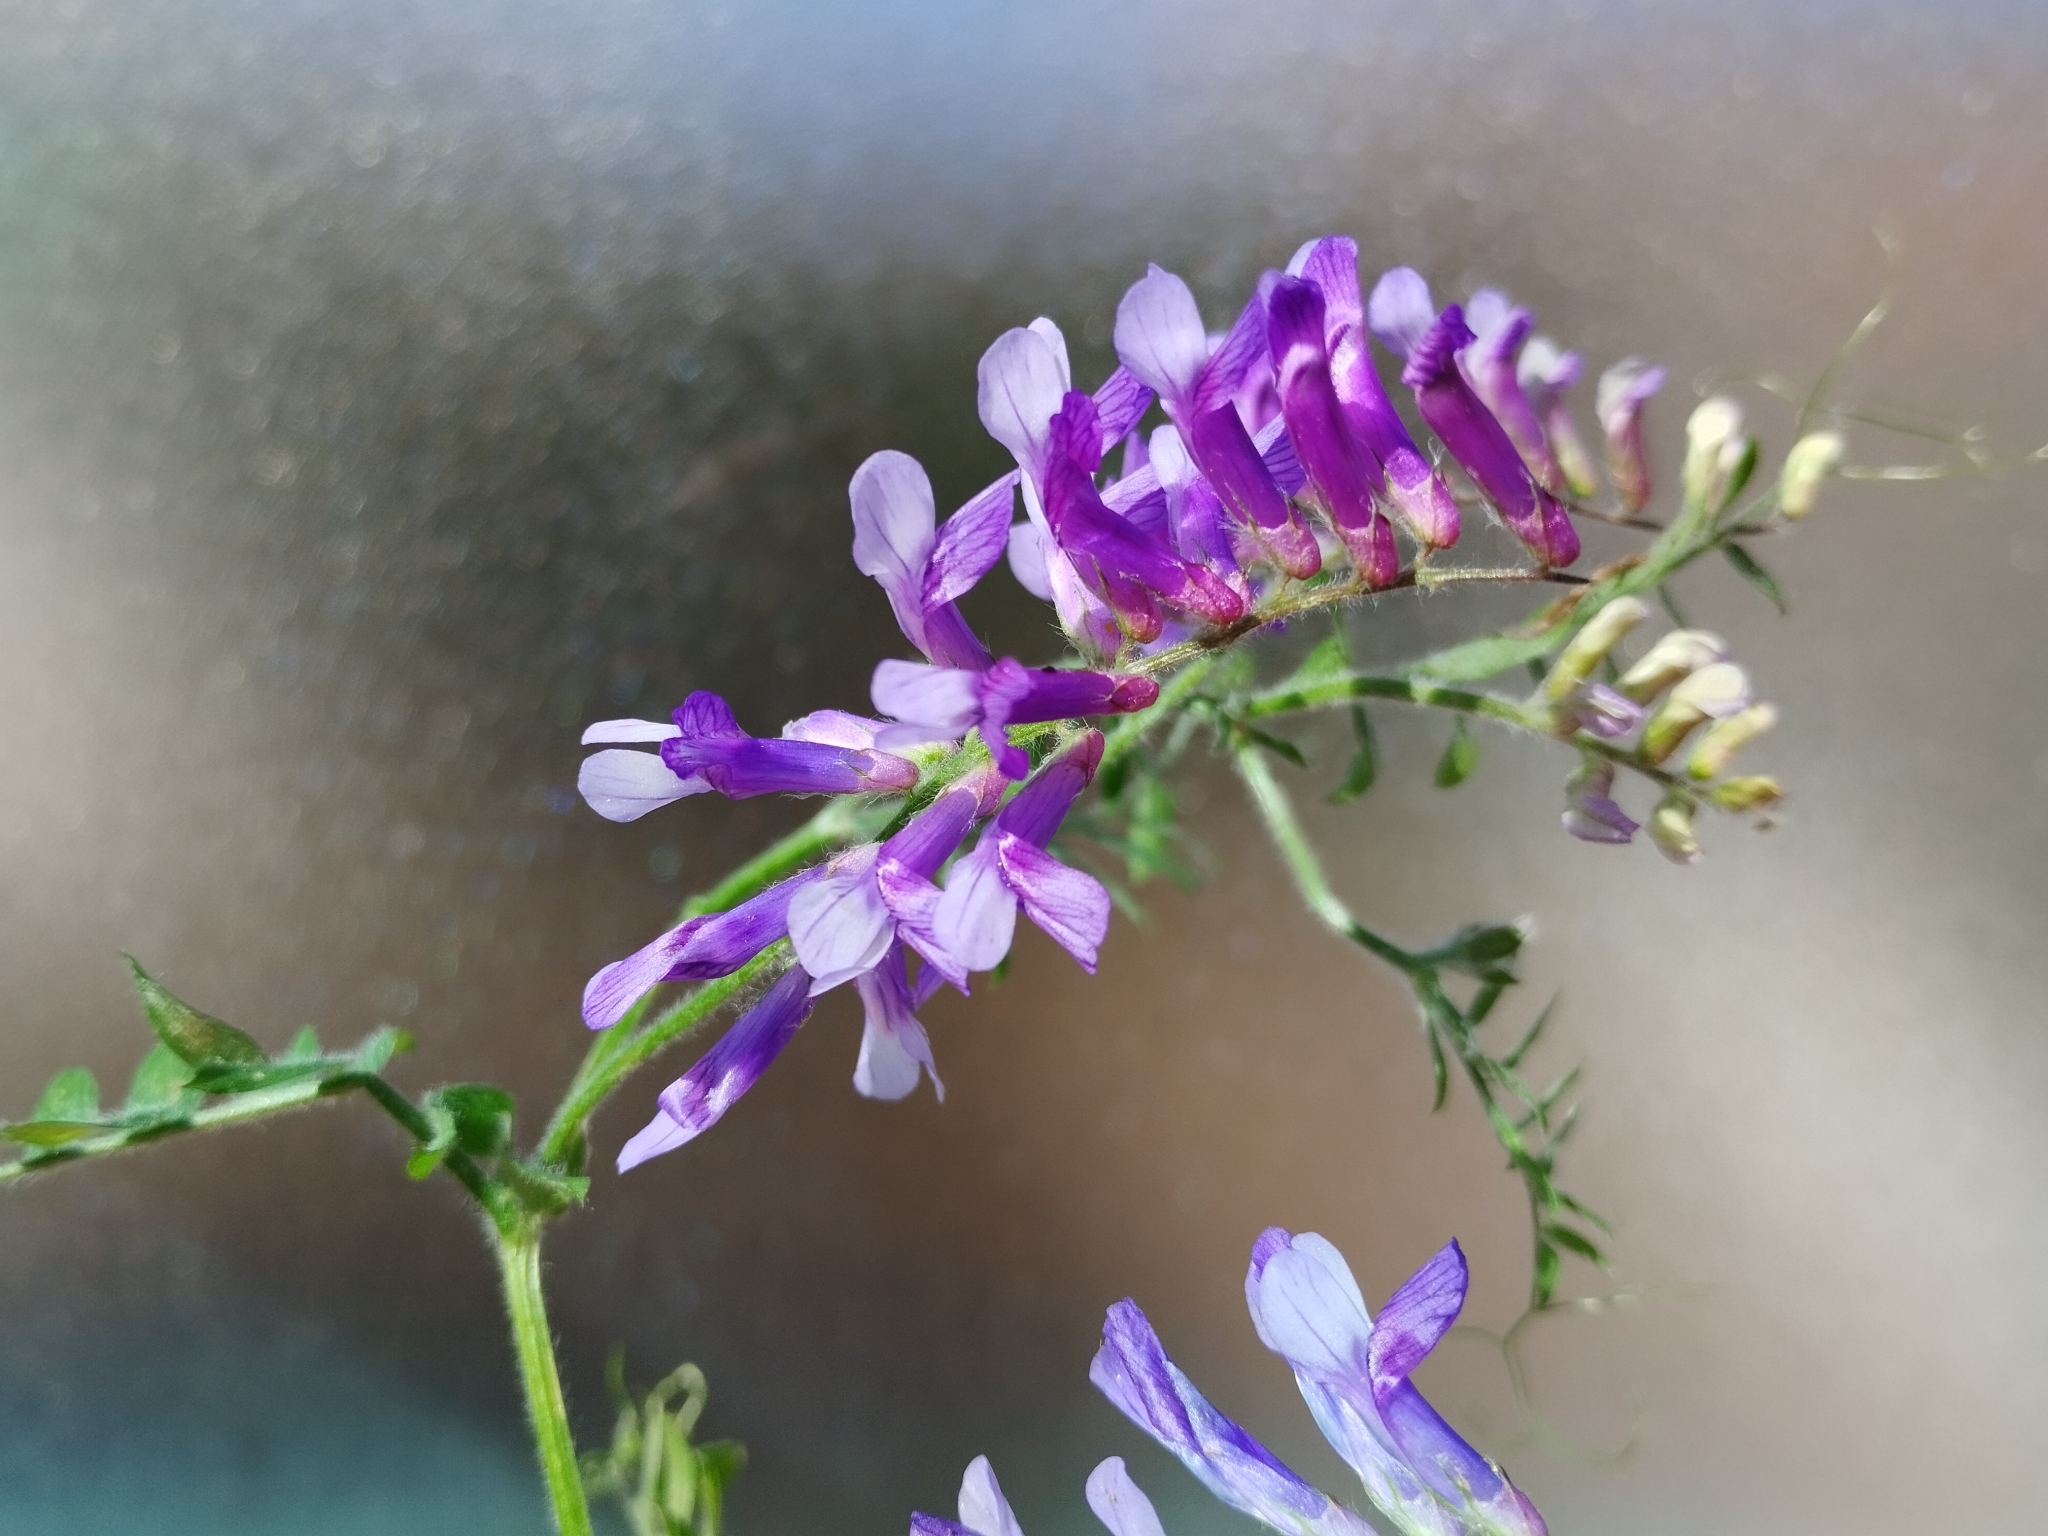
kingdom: Plantae
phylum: Tracheophyta
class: Magnoliopsida
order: Fabales
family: Fabaceae
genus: Vicia
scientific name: Vicia villosa
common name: Fodder vetch
